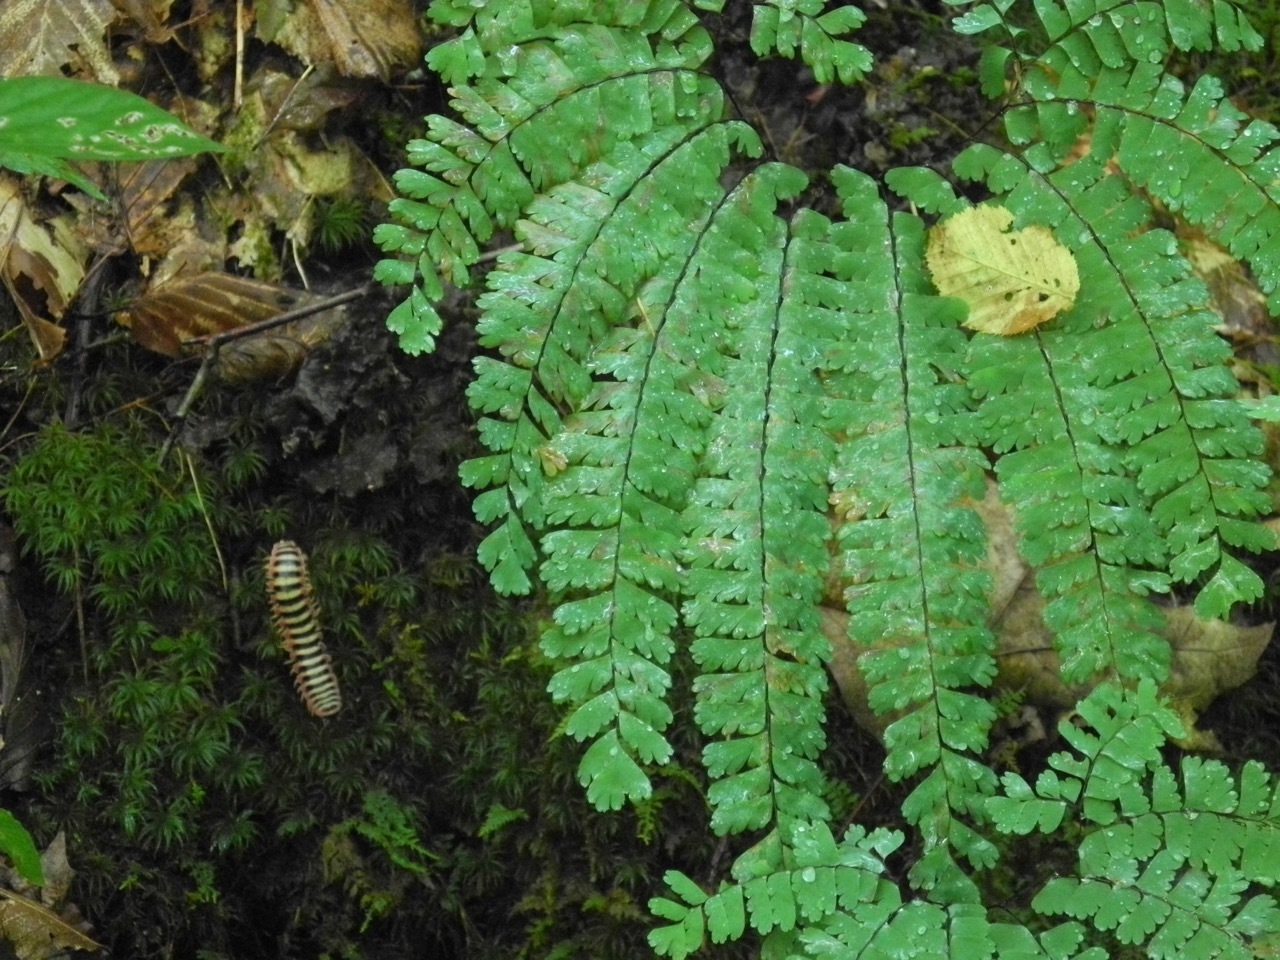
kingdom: Animalia
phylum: Arthropoda
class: Diplopoda
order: Polydesmida
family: Xystodesmidae
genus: Sigmoria
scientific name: Sigmoria nantahalae
